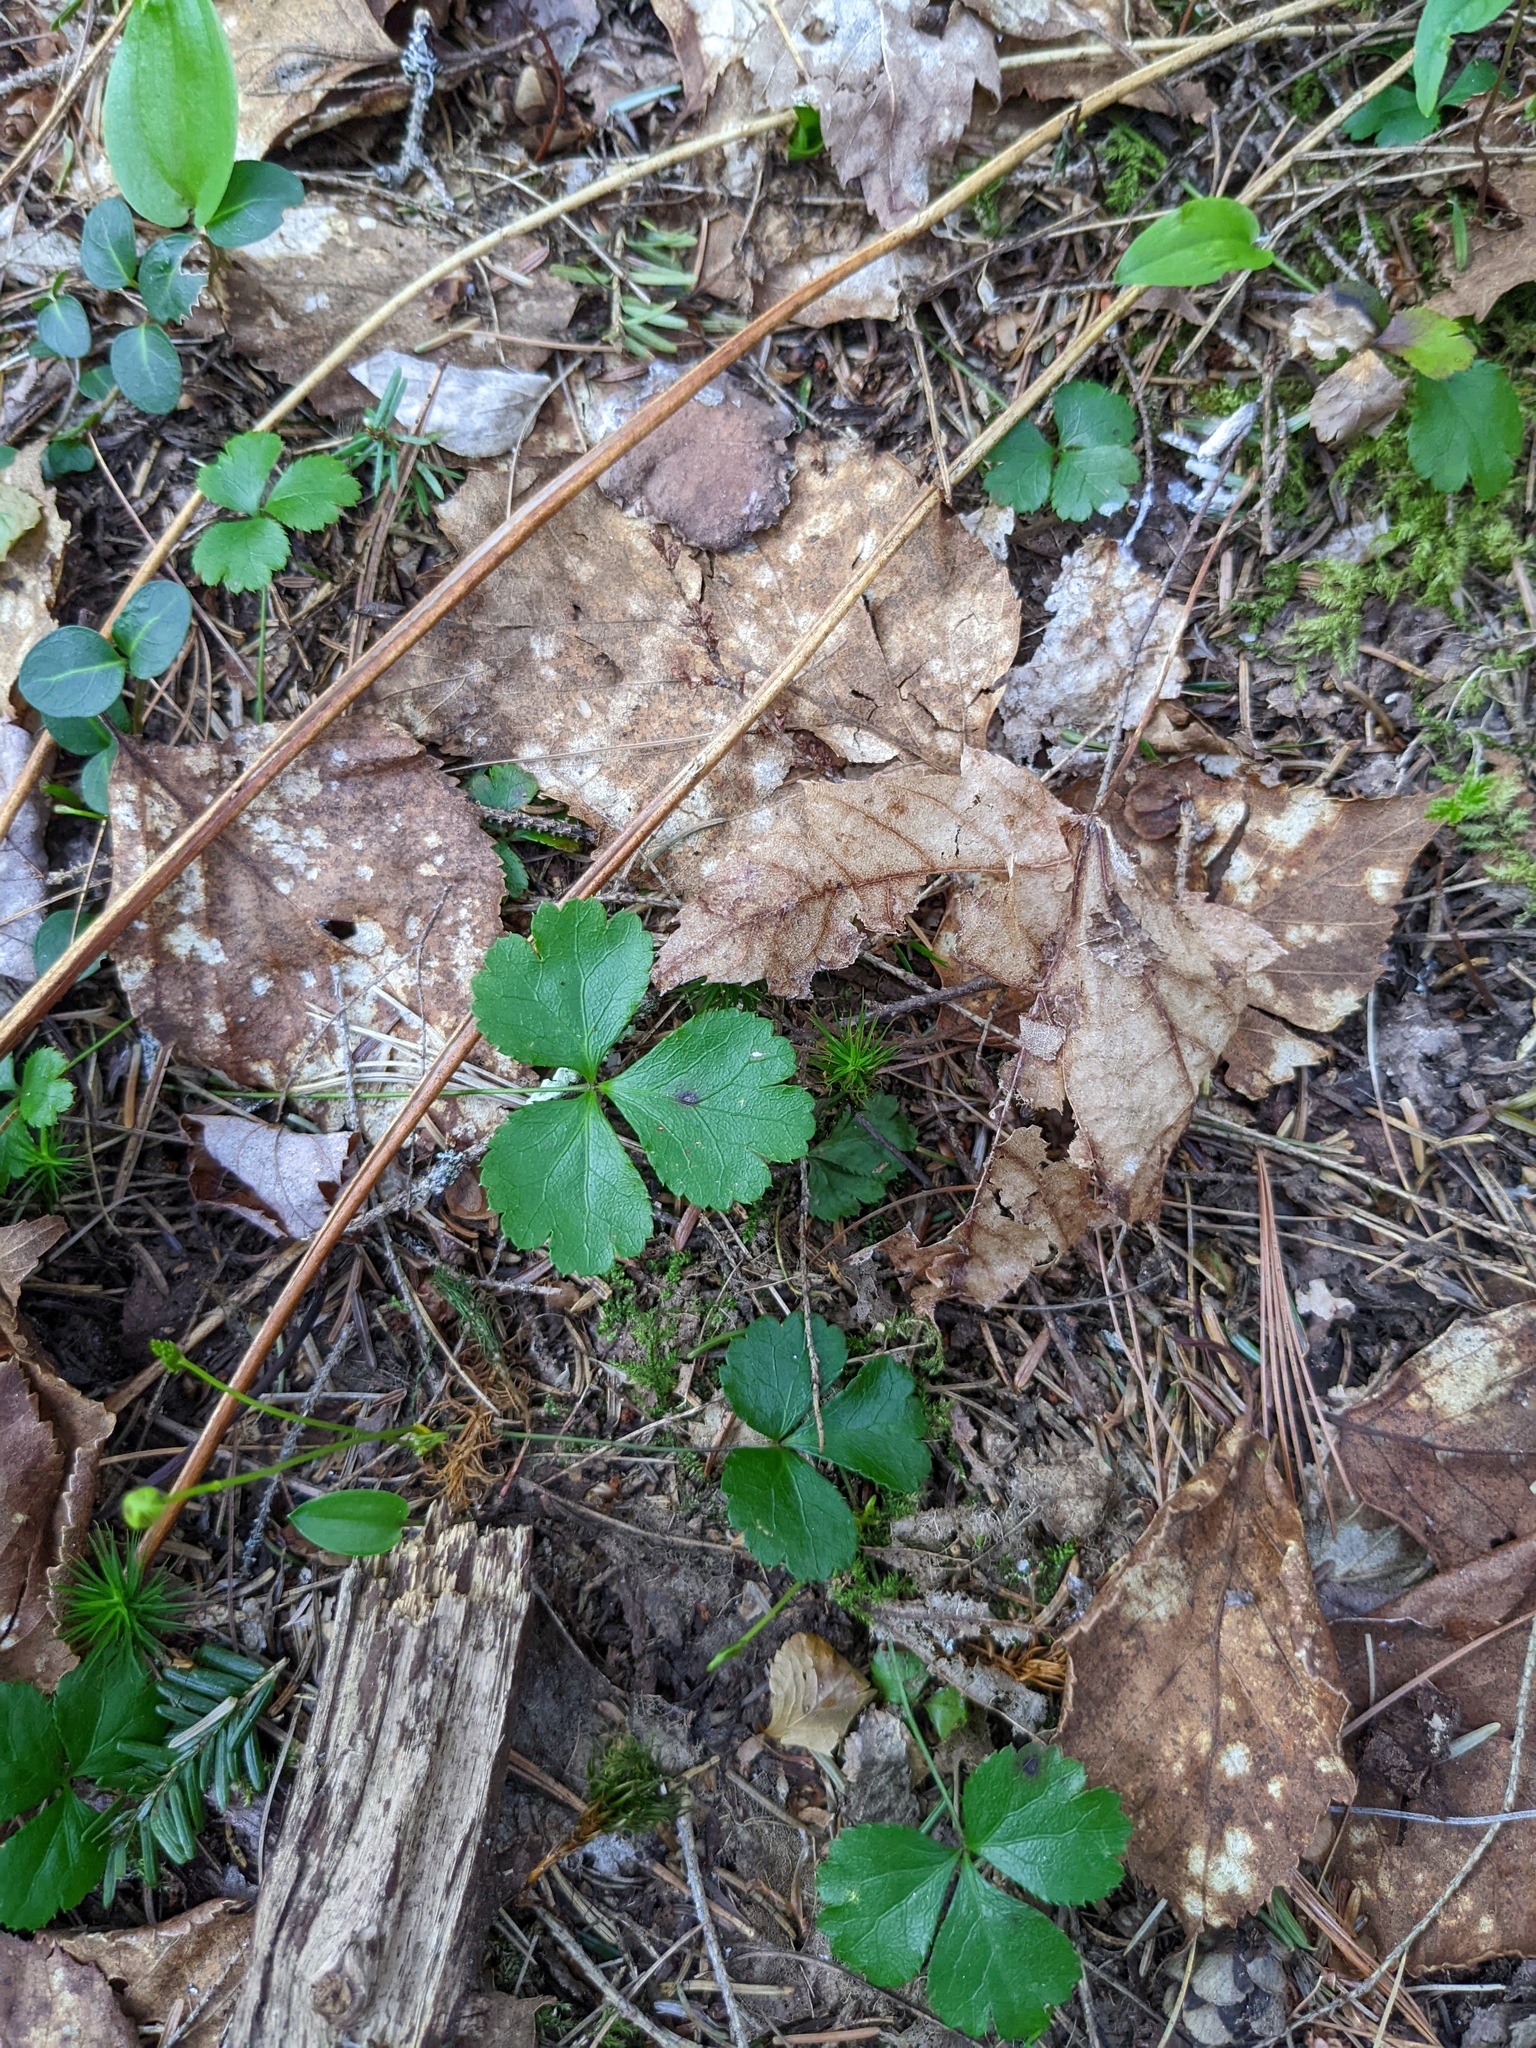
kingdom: Plantae
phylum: Tracheophyta
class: Magnoliopsida
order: Ranunculales
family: Ranunculaceae
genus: Coptis
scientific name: Coptis trifolia
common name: Canker-root
